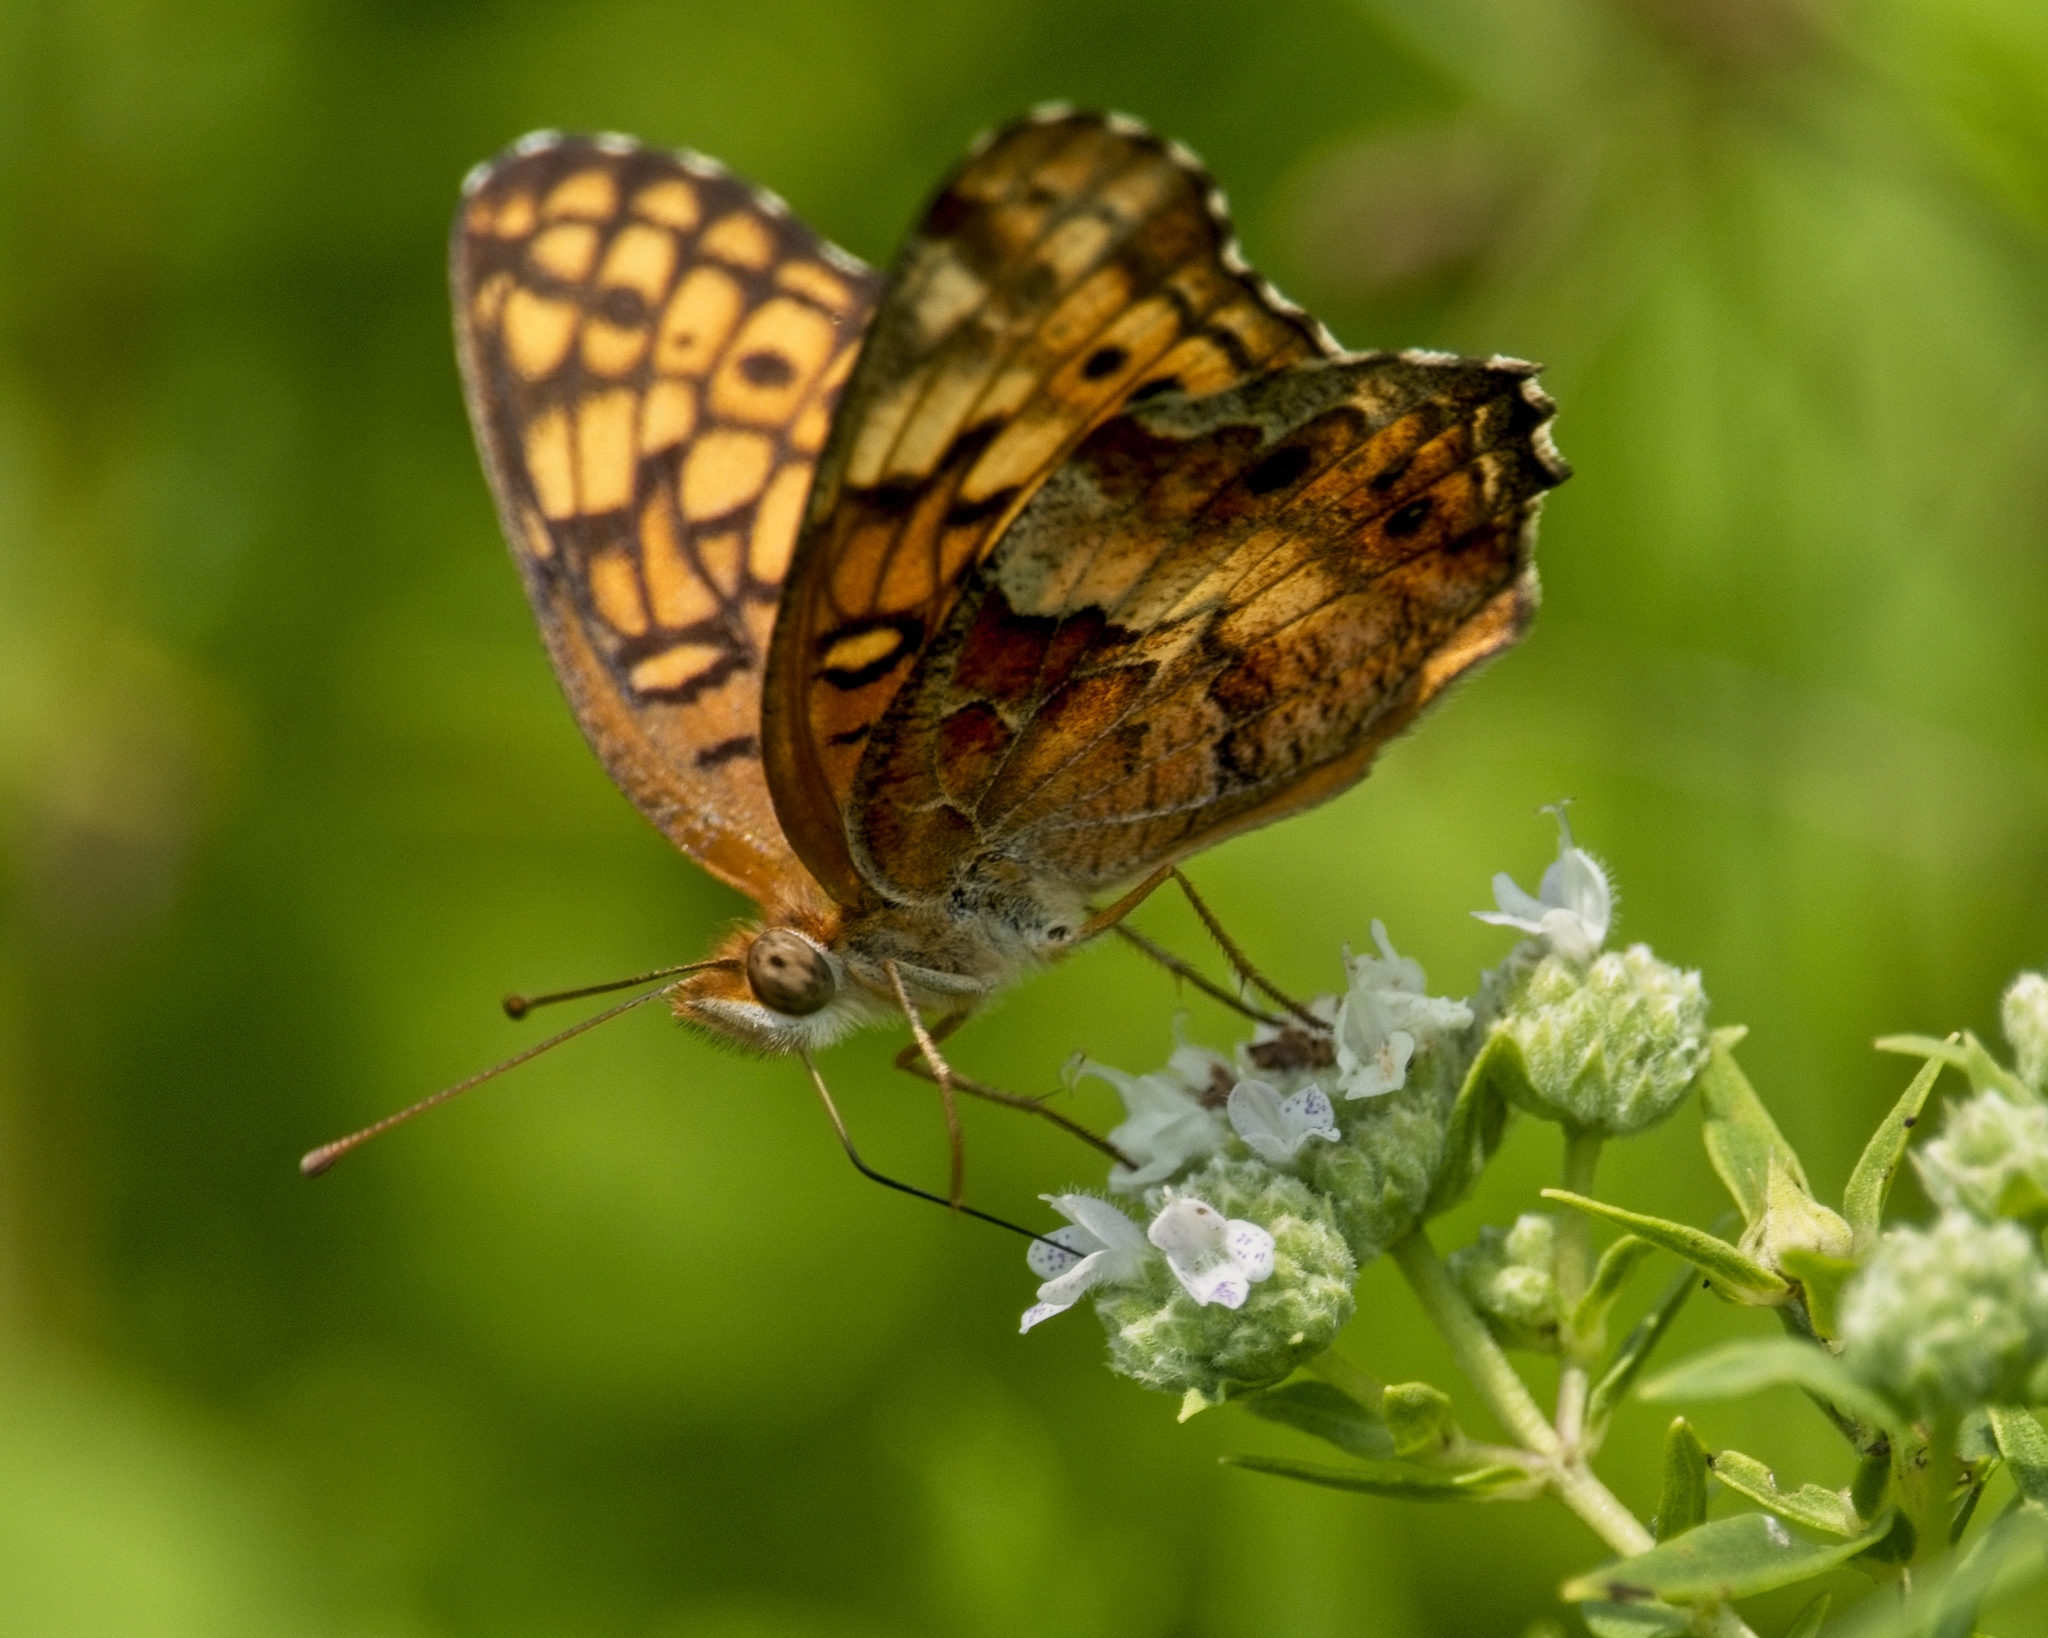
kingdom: Animalia
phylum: Arthropoda
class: Insecta
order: Lepidoptera
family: Nymphalidae
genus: Euptoieta
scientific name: Euptoieta claudia
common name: Variegated fritillary
